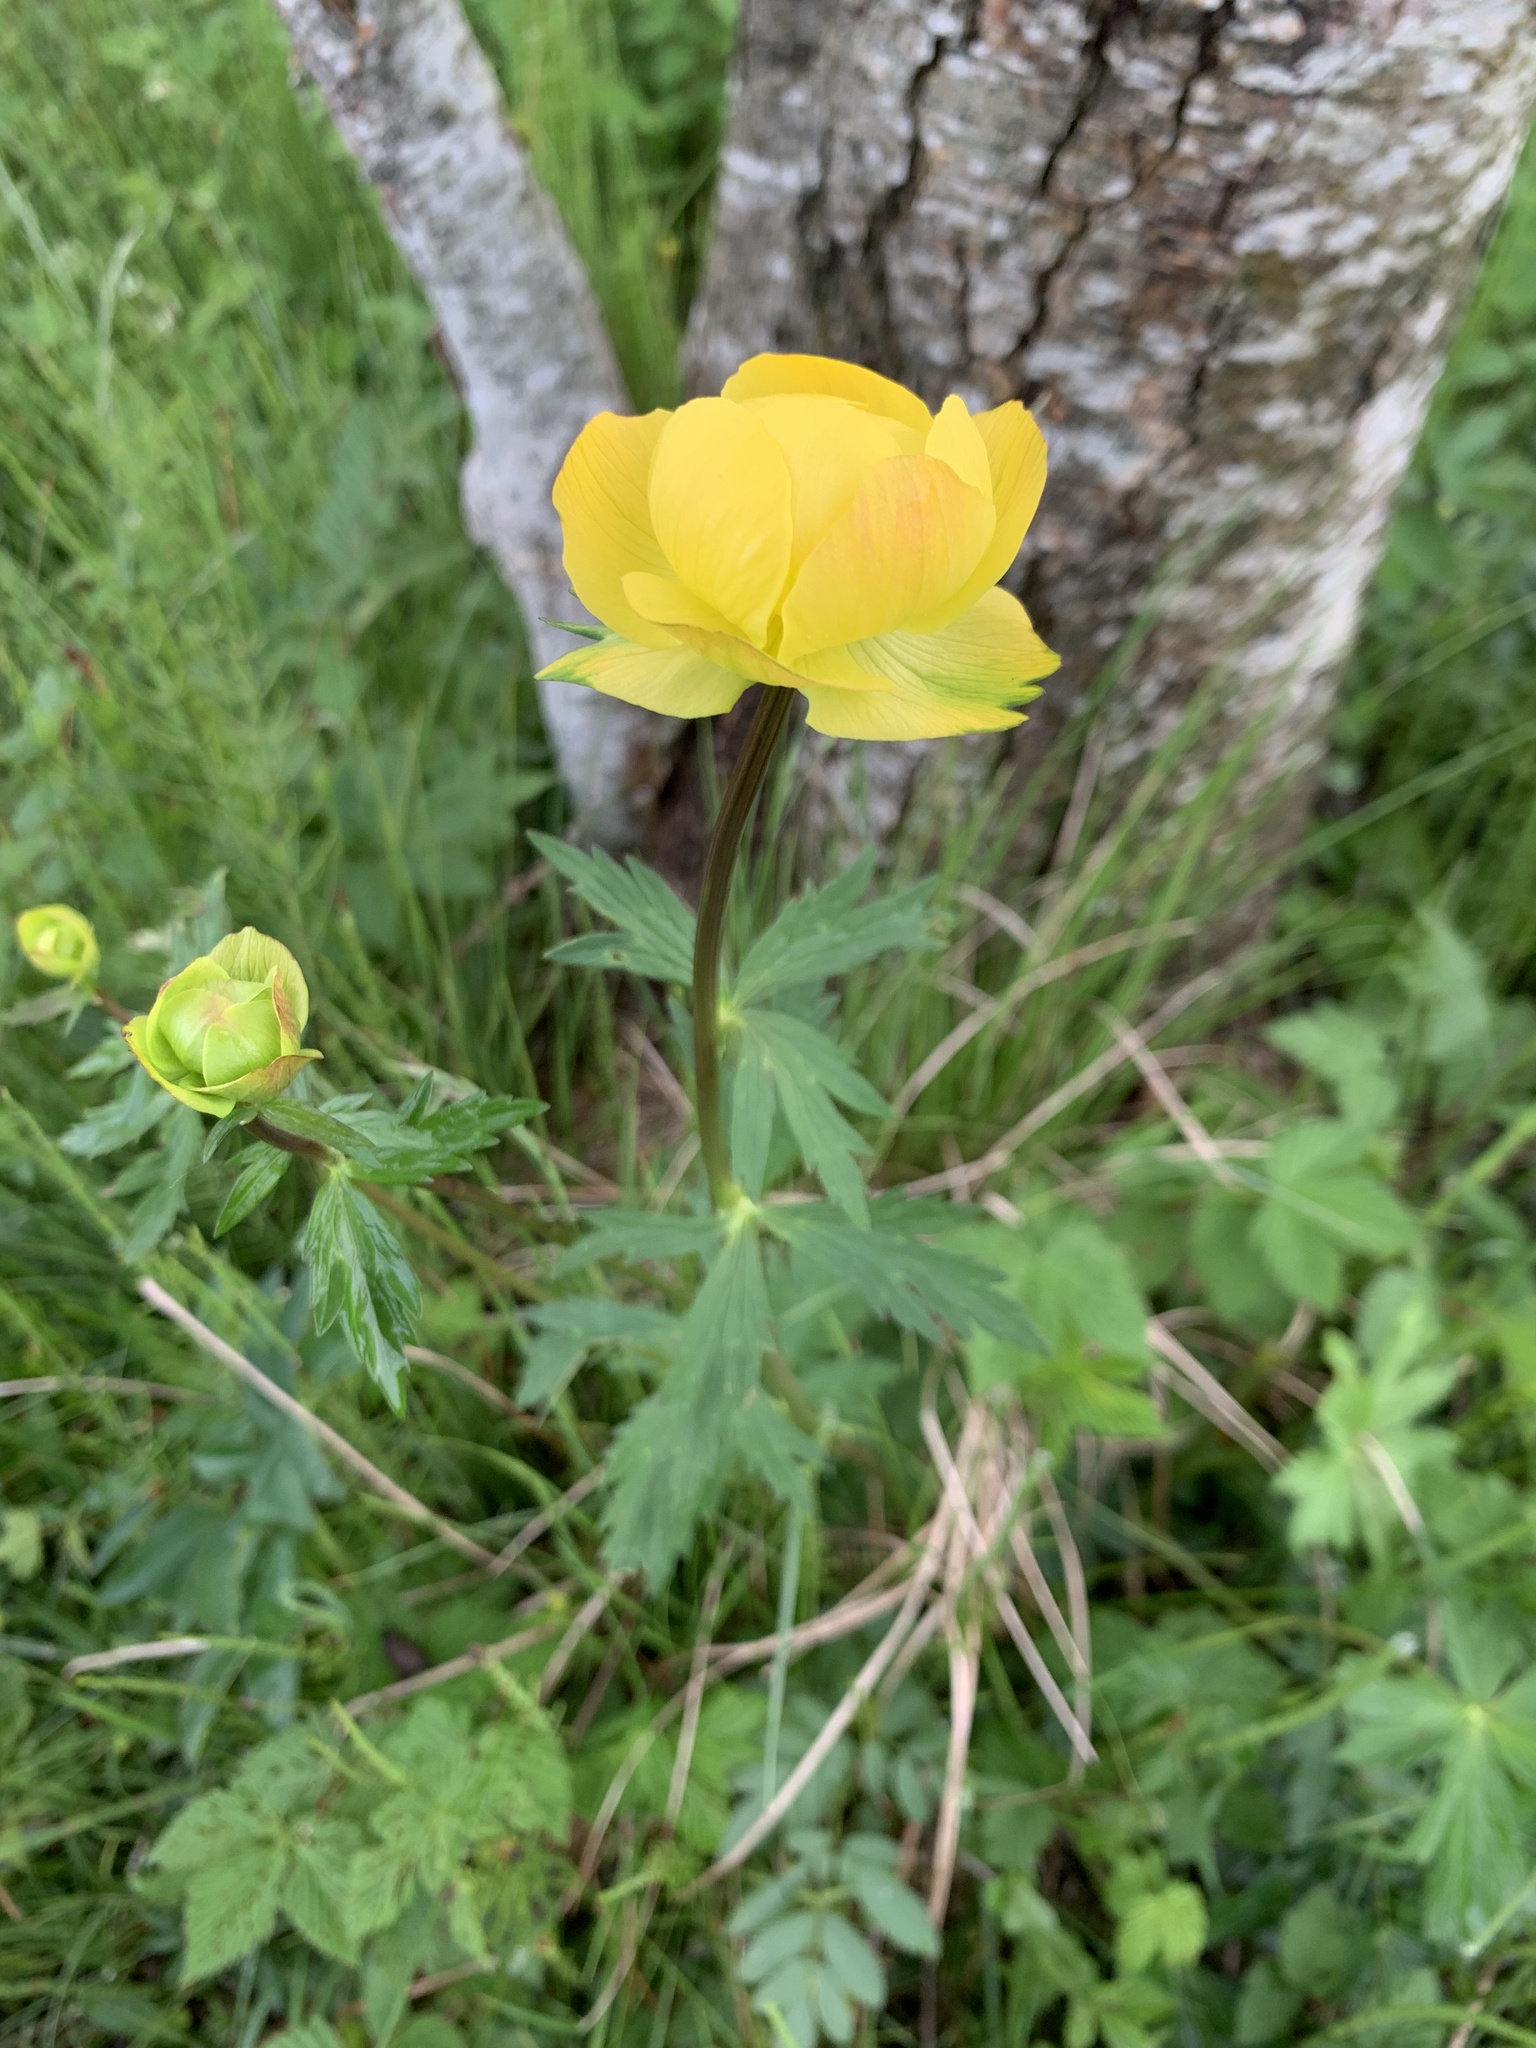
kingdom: Plantae
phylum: Tracheophyta
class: Magnoliopsida
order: Ranunculales
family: Ranunculaceae
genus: Trollius
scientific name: Trollius europaeus
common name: European globeflower
